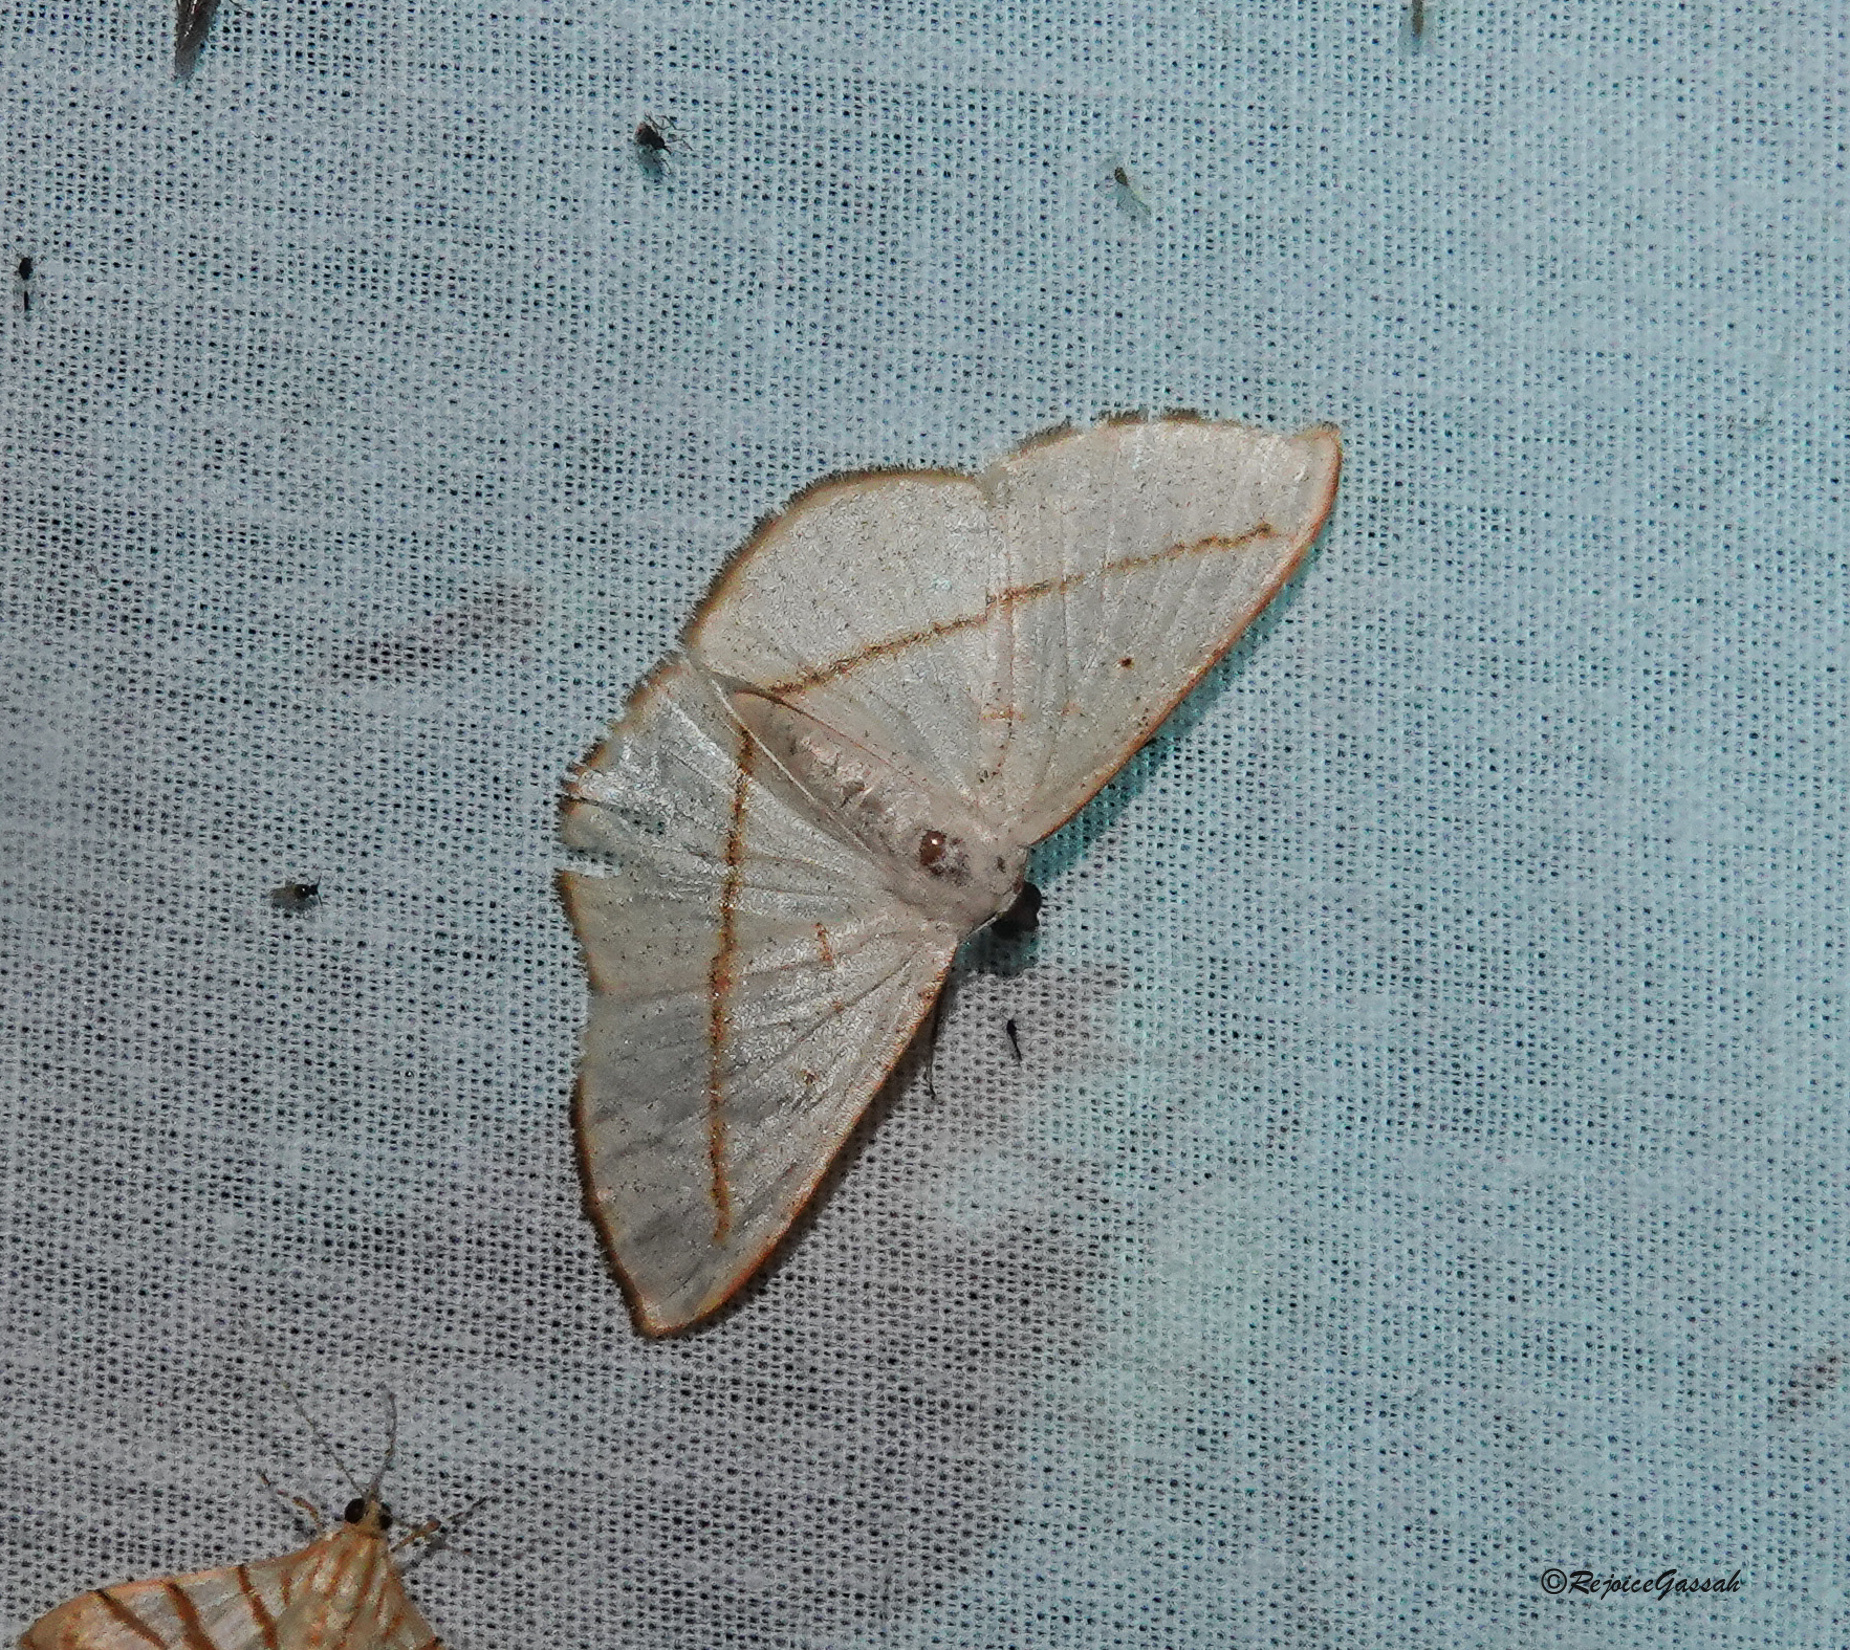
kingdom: Animalia
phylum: Arthropoda
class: Insecta
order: Lepidoptera
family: Geometridae
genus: Lomographa
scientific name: Lomographa inamata
